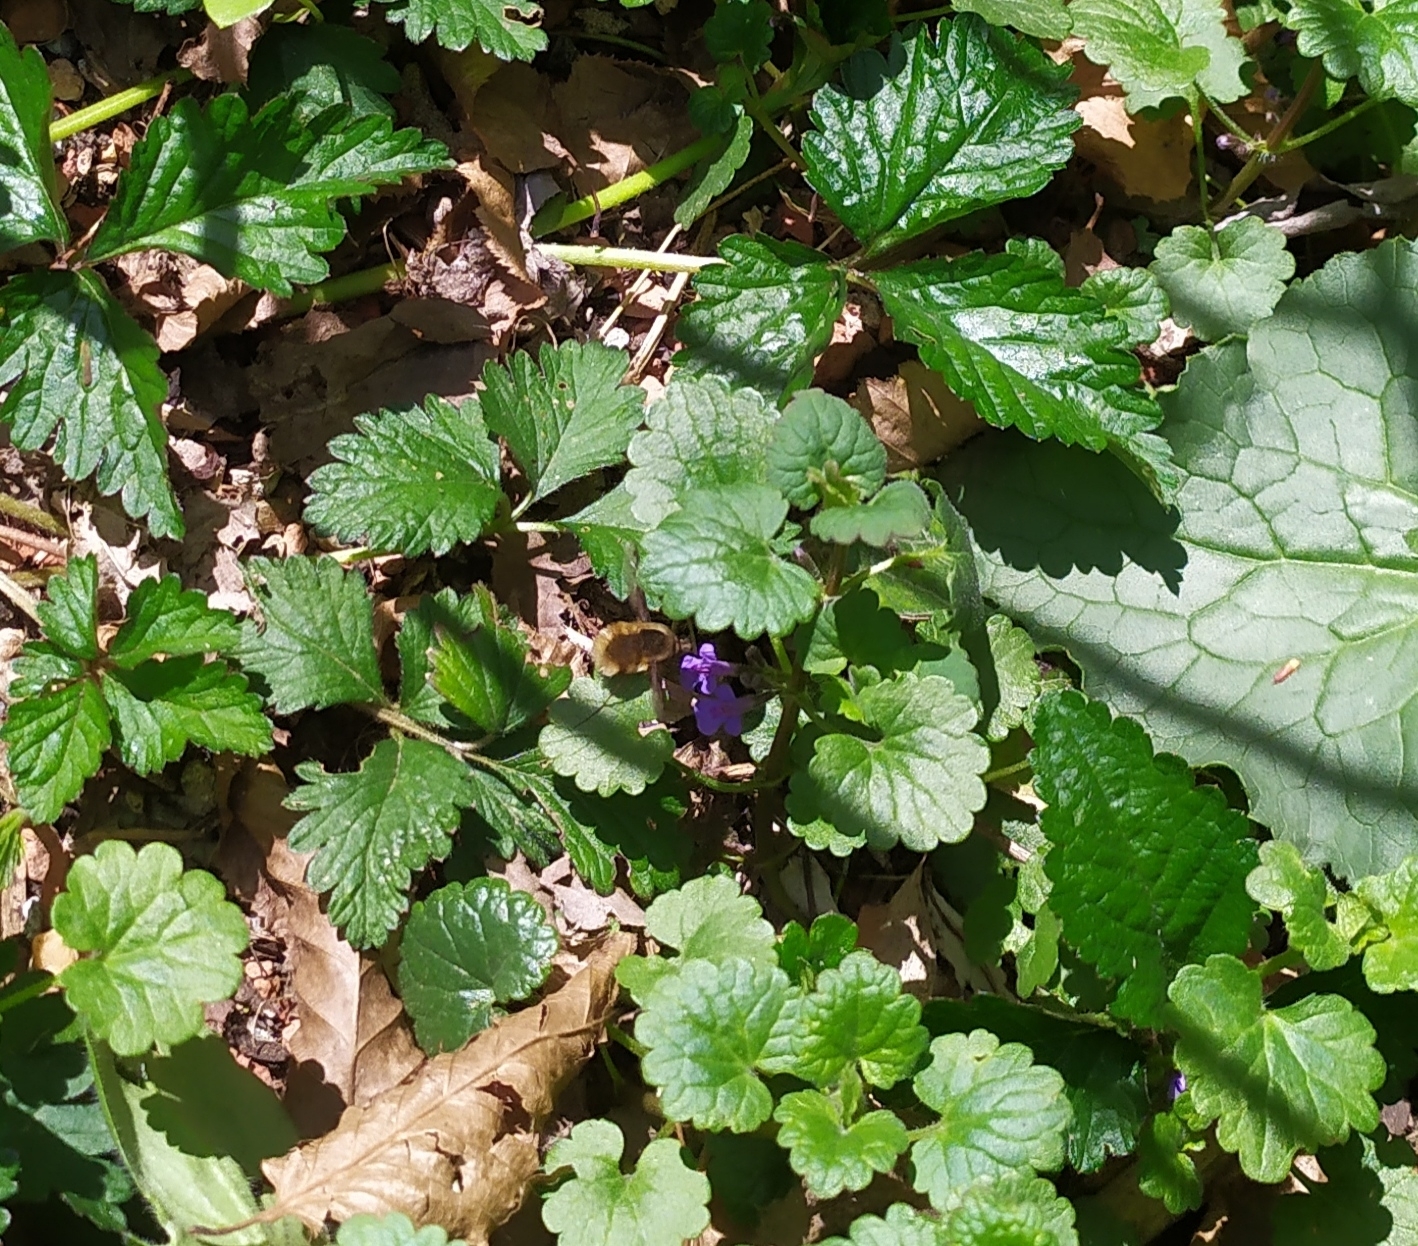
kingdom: Animalia
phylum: Arthropoda
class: Insecta
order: Diptera
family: Bombyliidae
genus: Bombylius
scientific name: Bombylius major
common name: Bee fly
